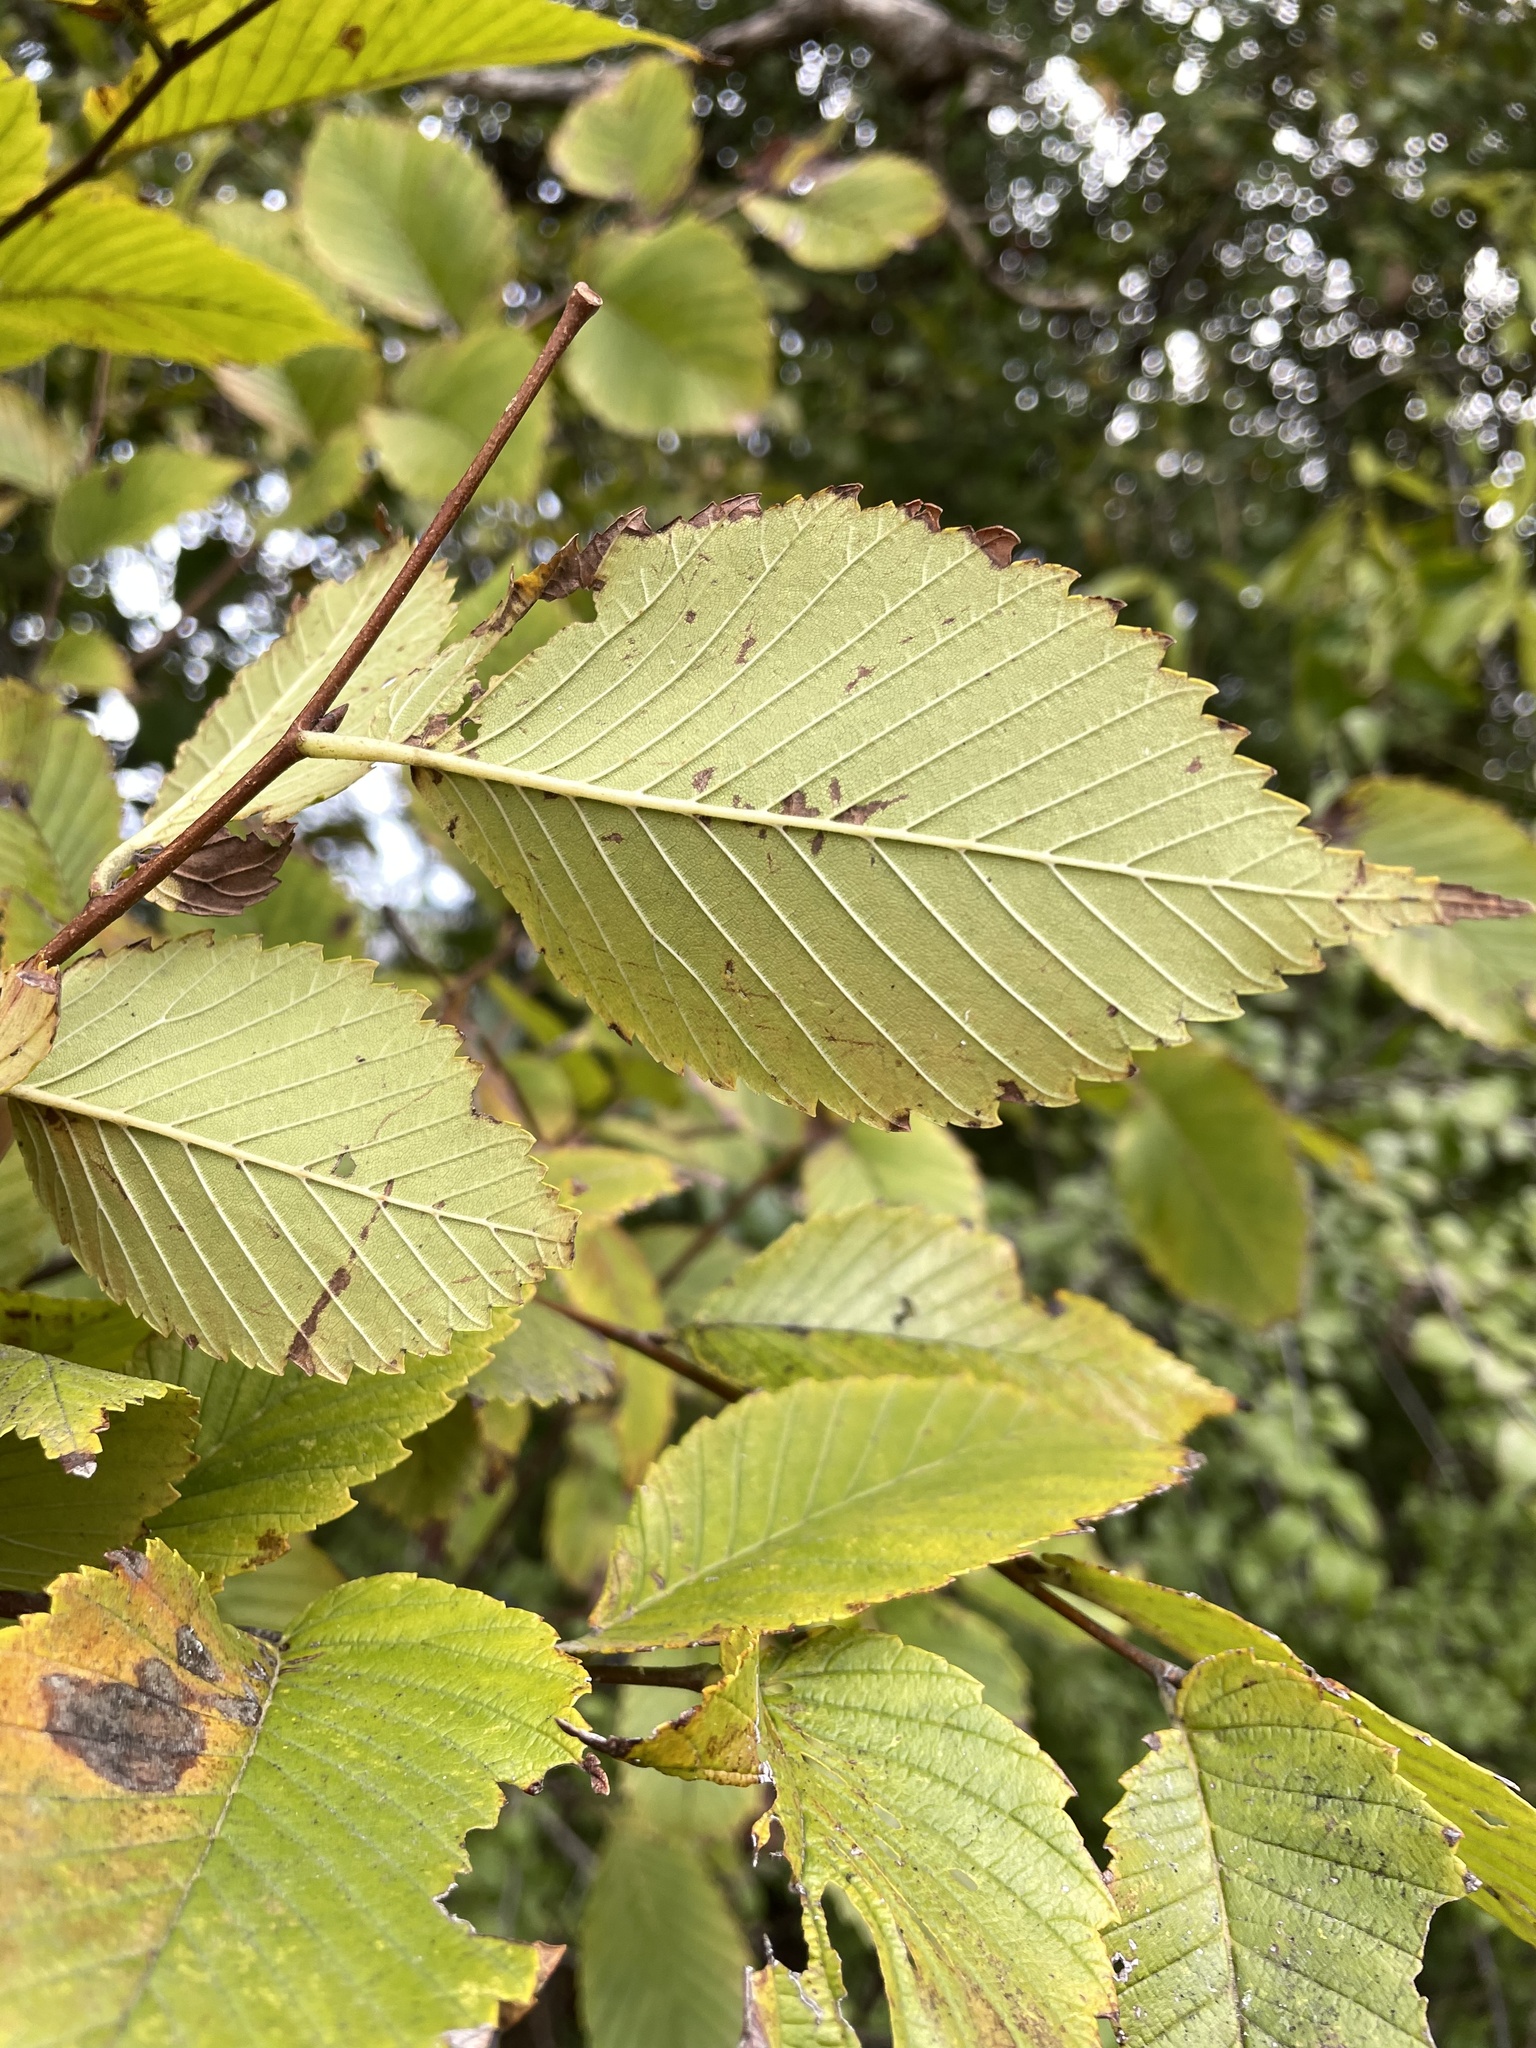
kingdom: Plantae
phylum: Tracheophyta
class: Magnoliopsida
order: Rosales
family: Ulmaceae
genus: Ulmus
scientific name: Ulmus americana
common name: American elm
